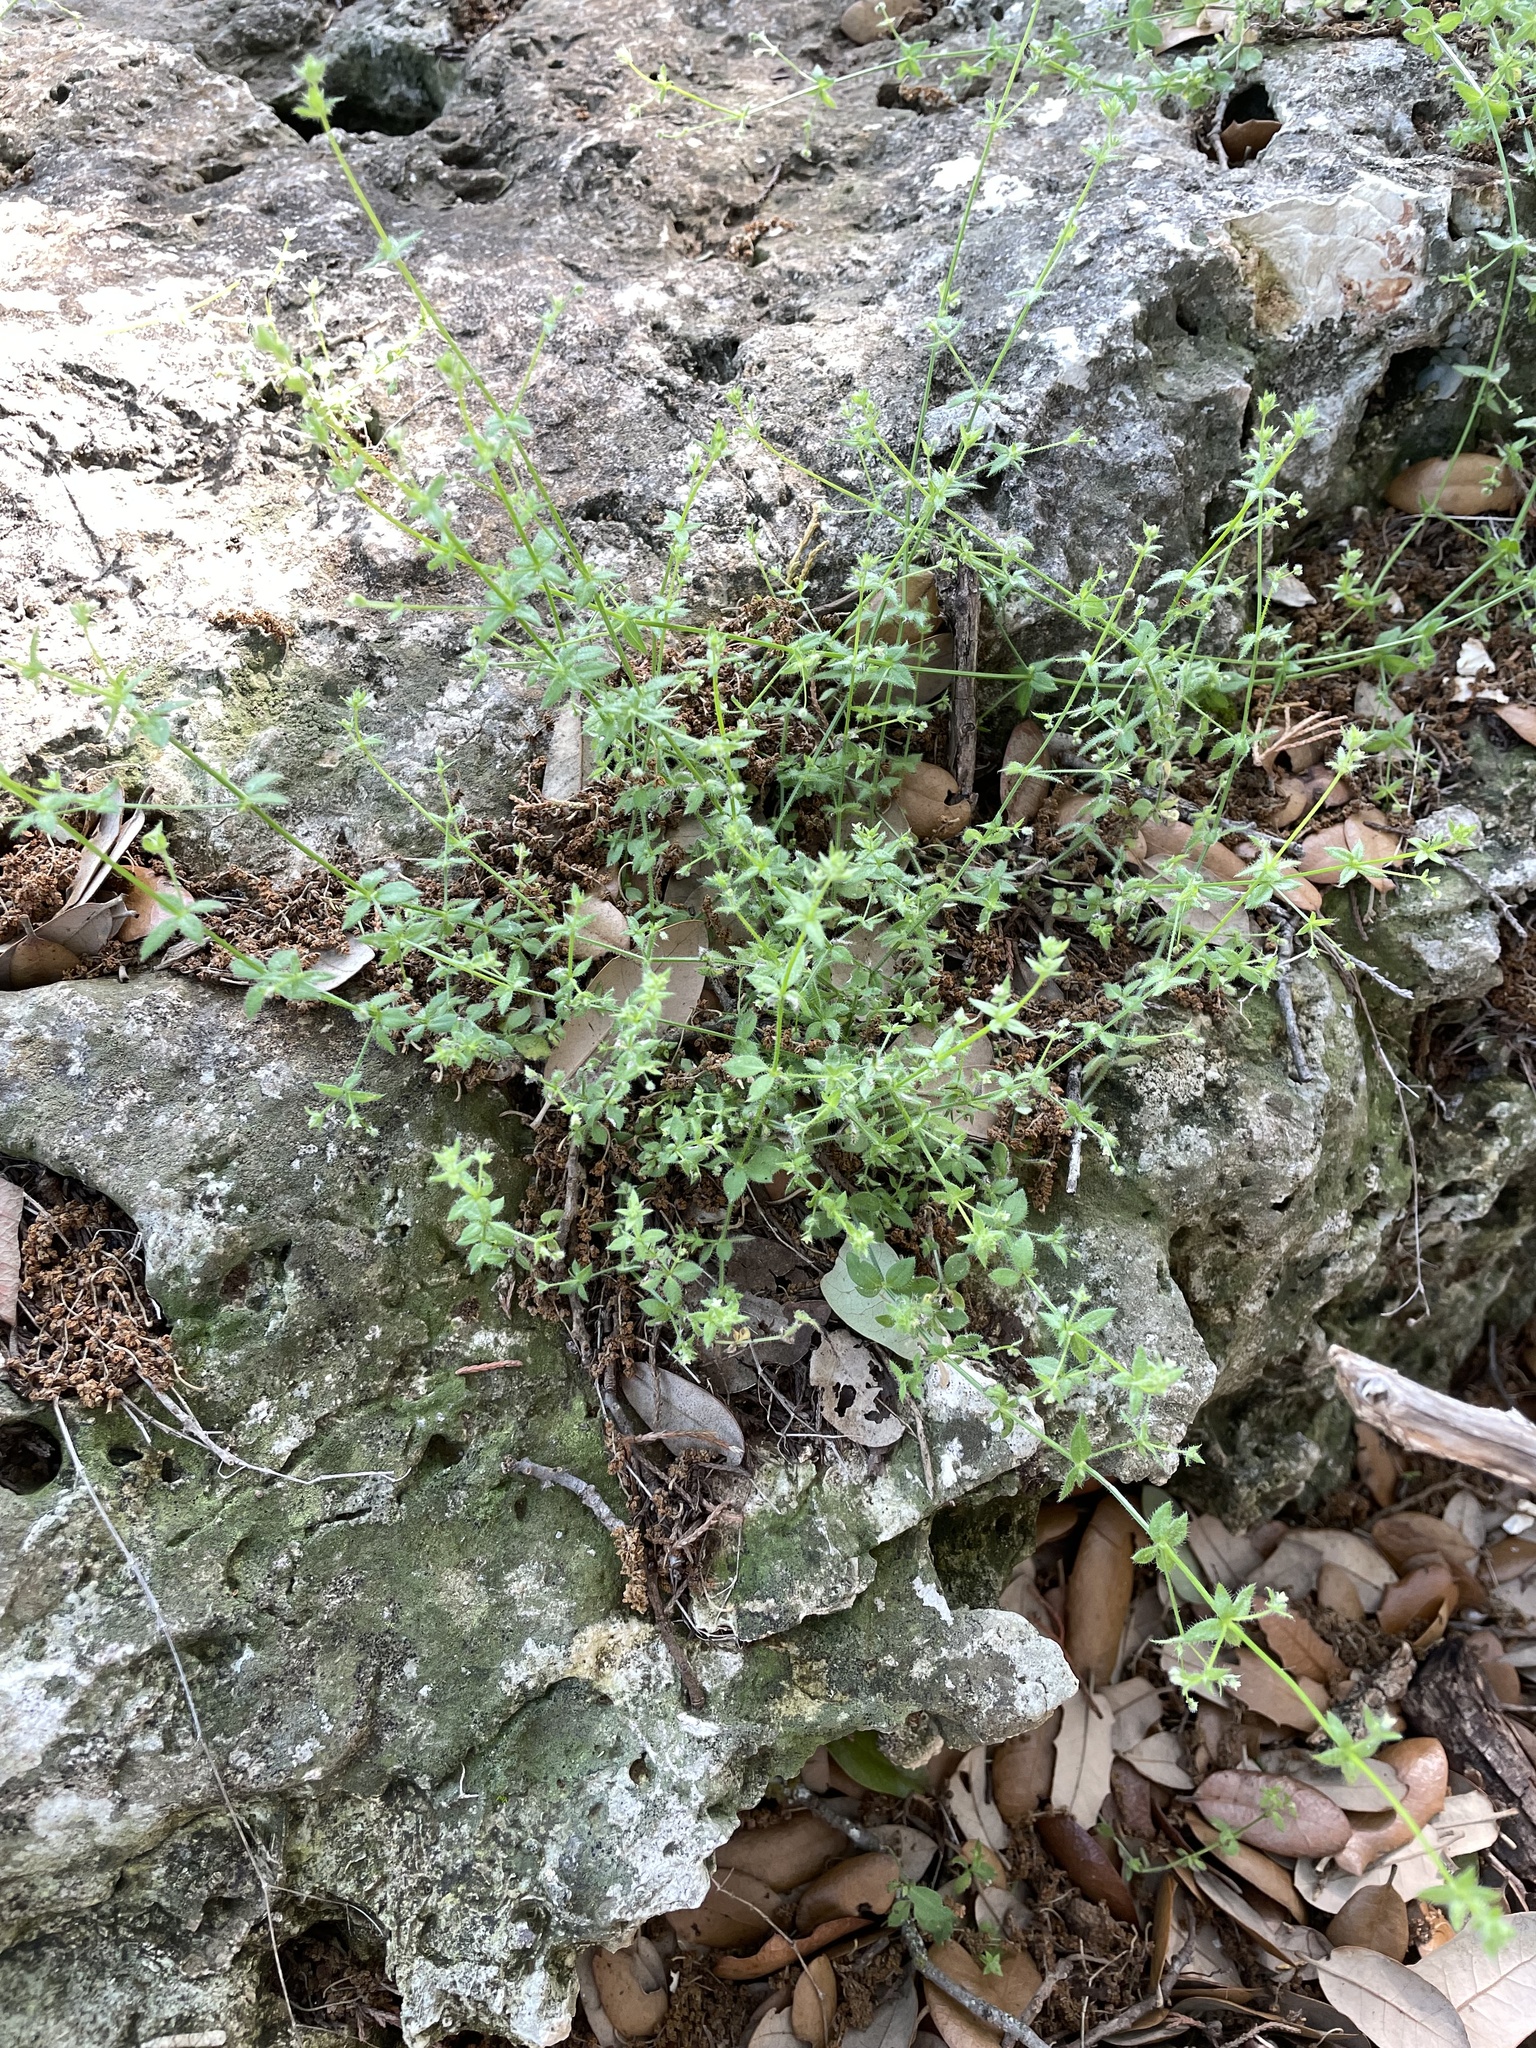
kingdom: Plantae
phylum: Tracheophyta
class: Magnoliopsida
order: Gentianales
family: Rubiaceae
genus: Galium
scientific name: Galium texense
